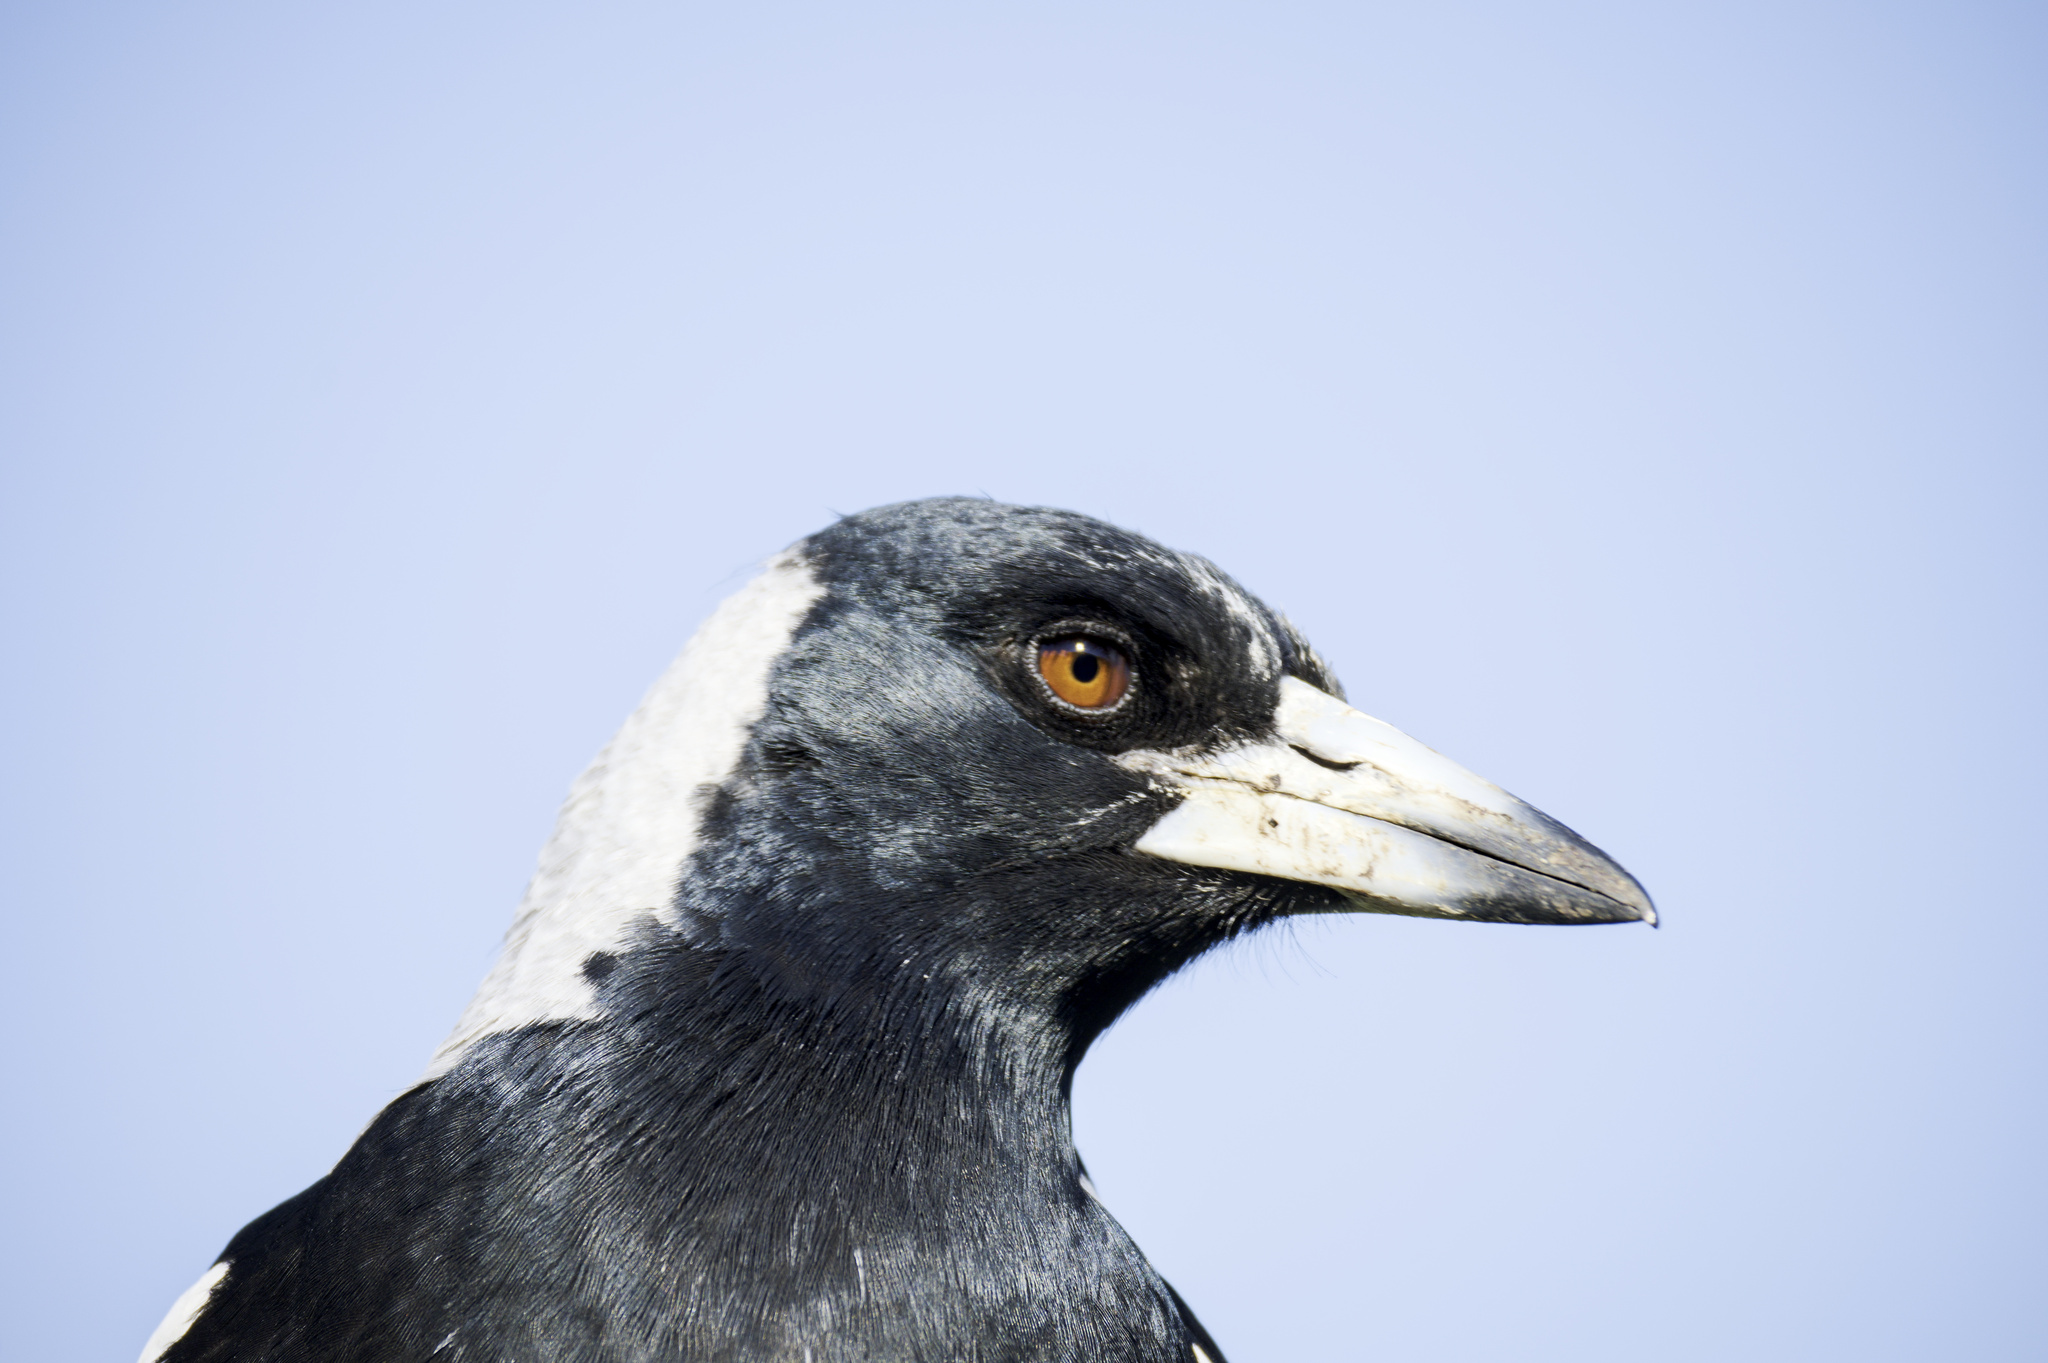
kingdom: Animalia
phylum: Chordata
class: Aves
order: Passeriformes
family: Cracticidae
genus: Gymnorhina
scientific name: Gymnorhina tibicen
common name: Australian magpie
